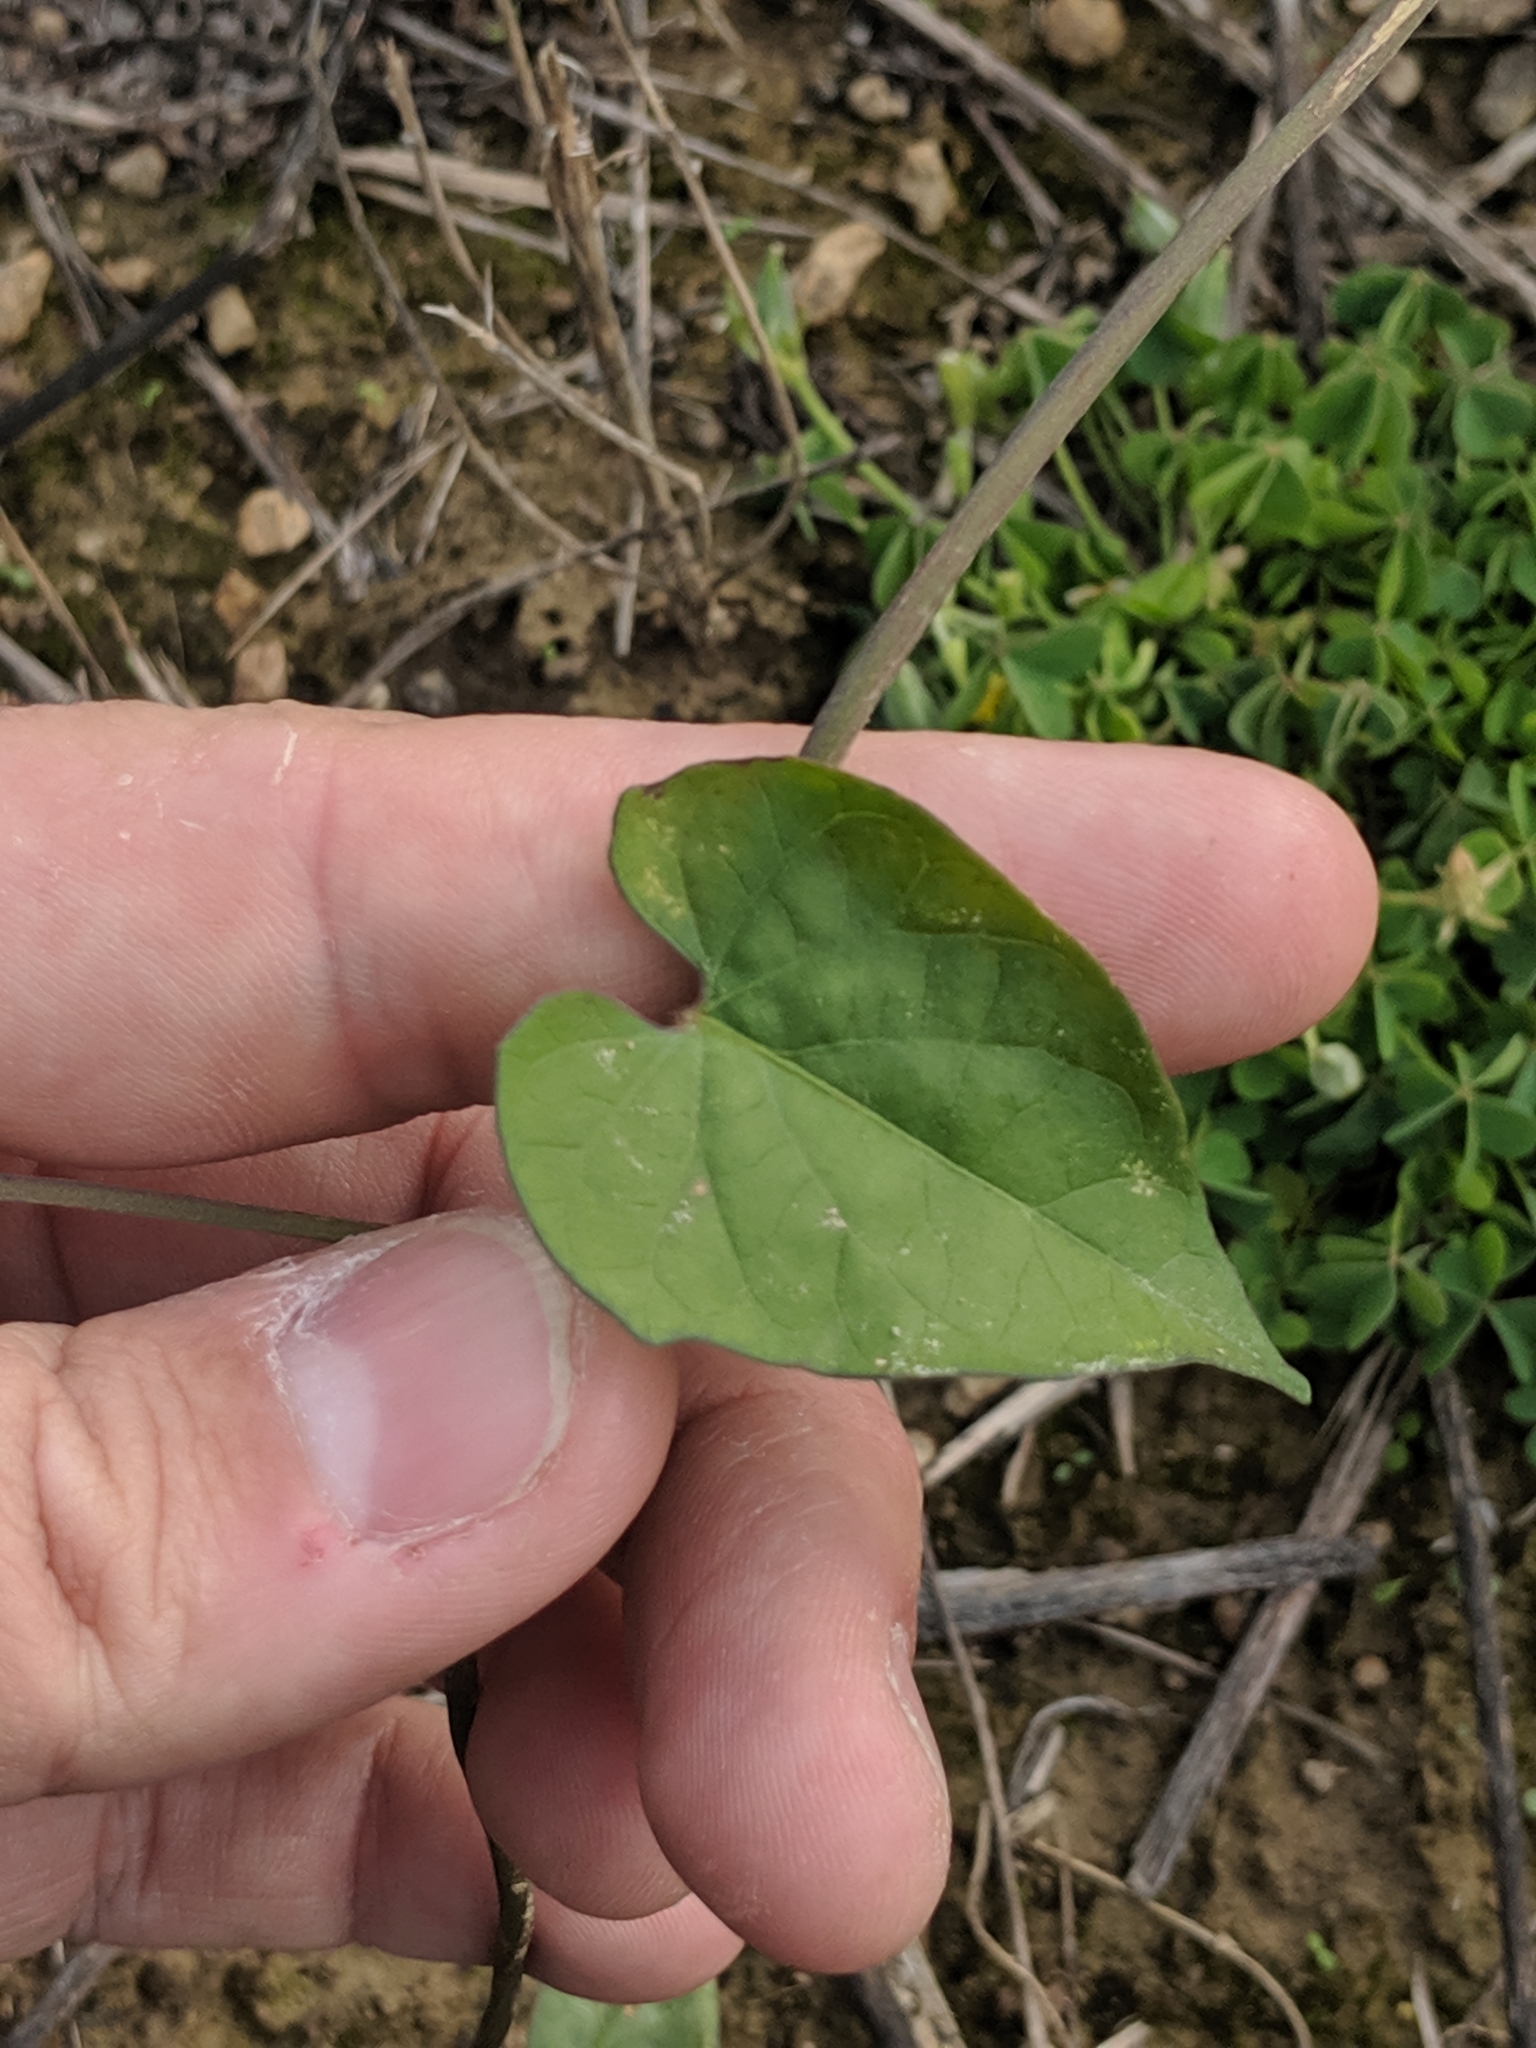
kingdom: Plantae
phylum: Tracheophyta
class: Magnoliopsida
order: Solanales
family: Convolvulaceae
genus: Ipomoea
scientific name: Ipomoea coccinea
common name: Red morning-glory
